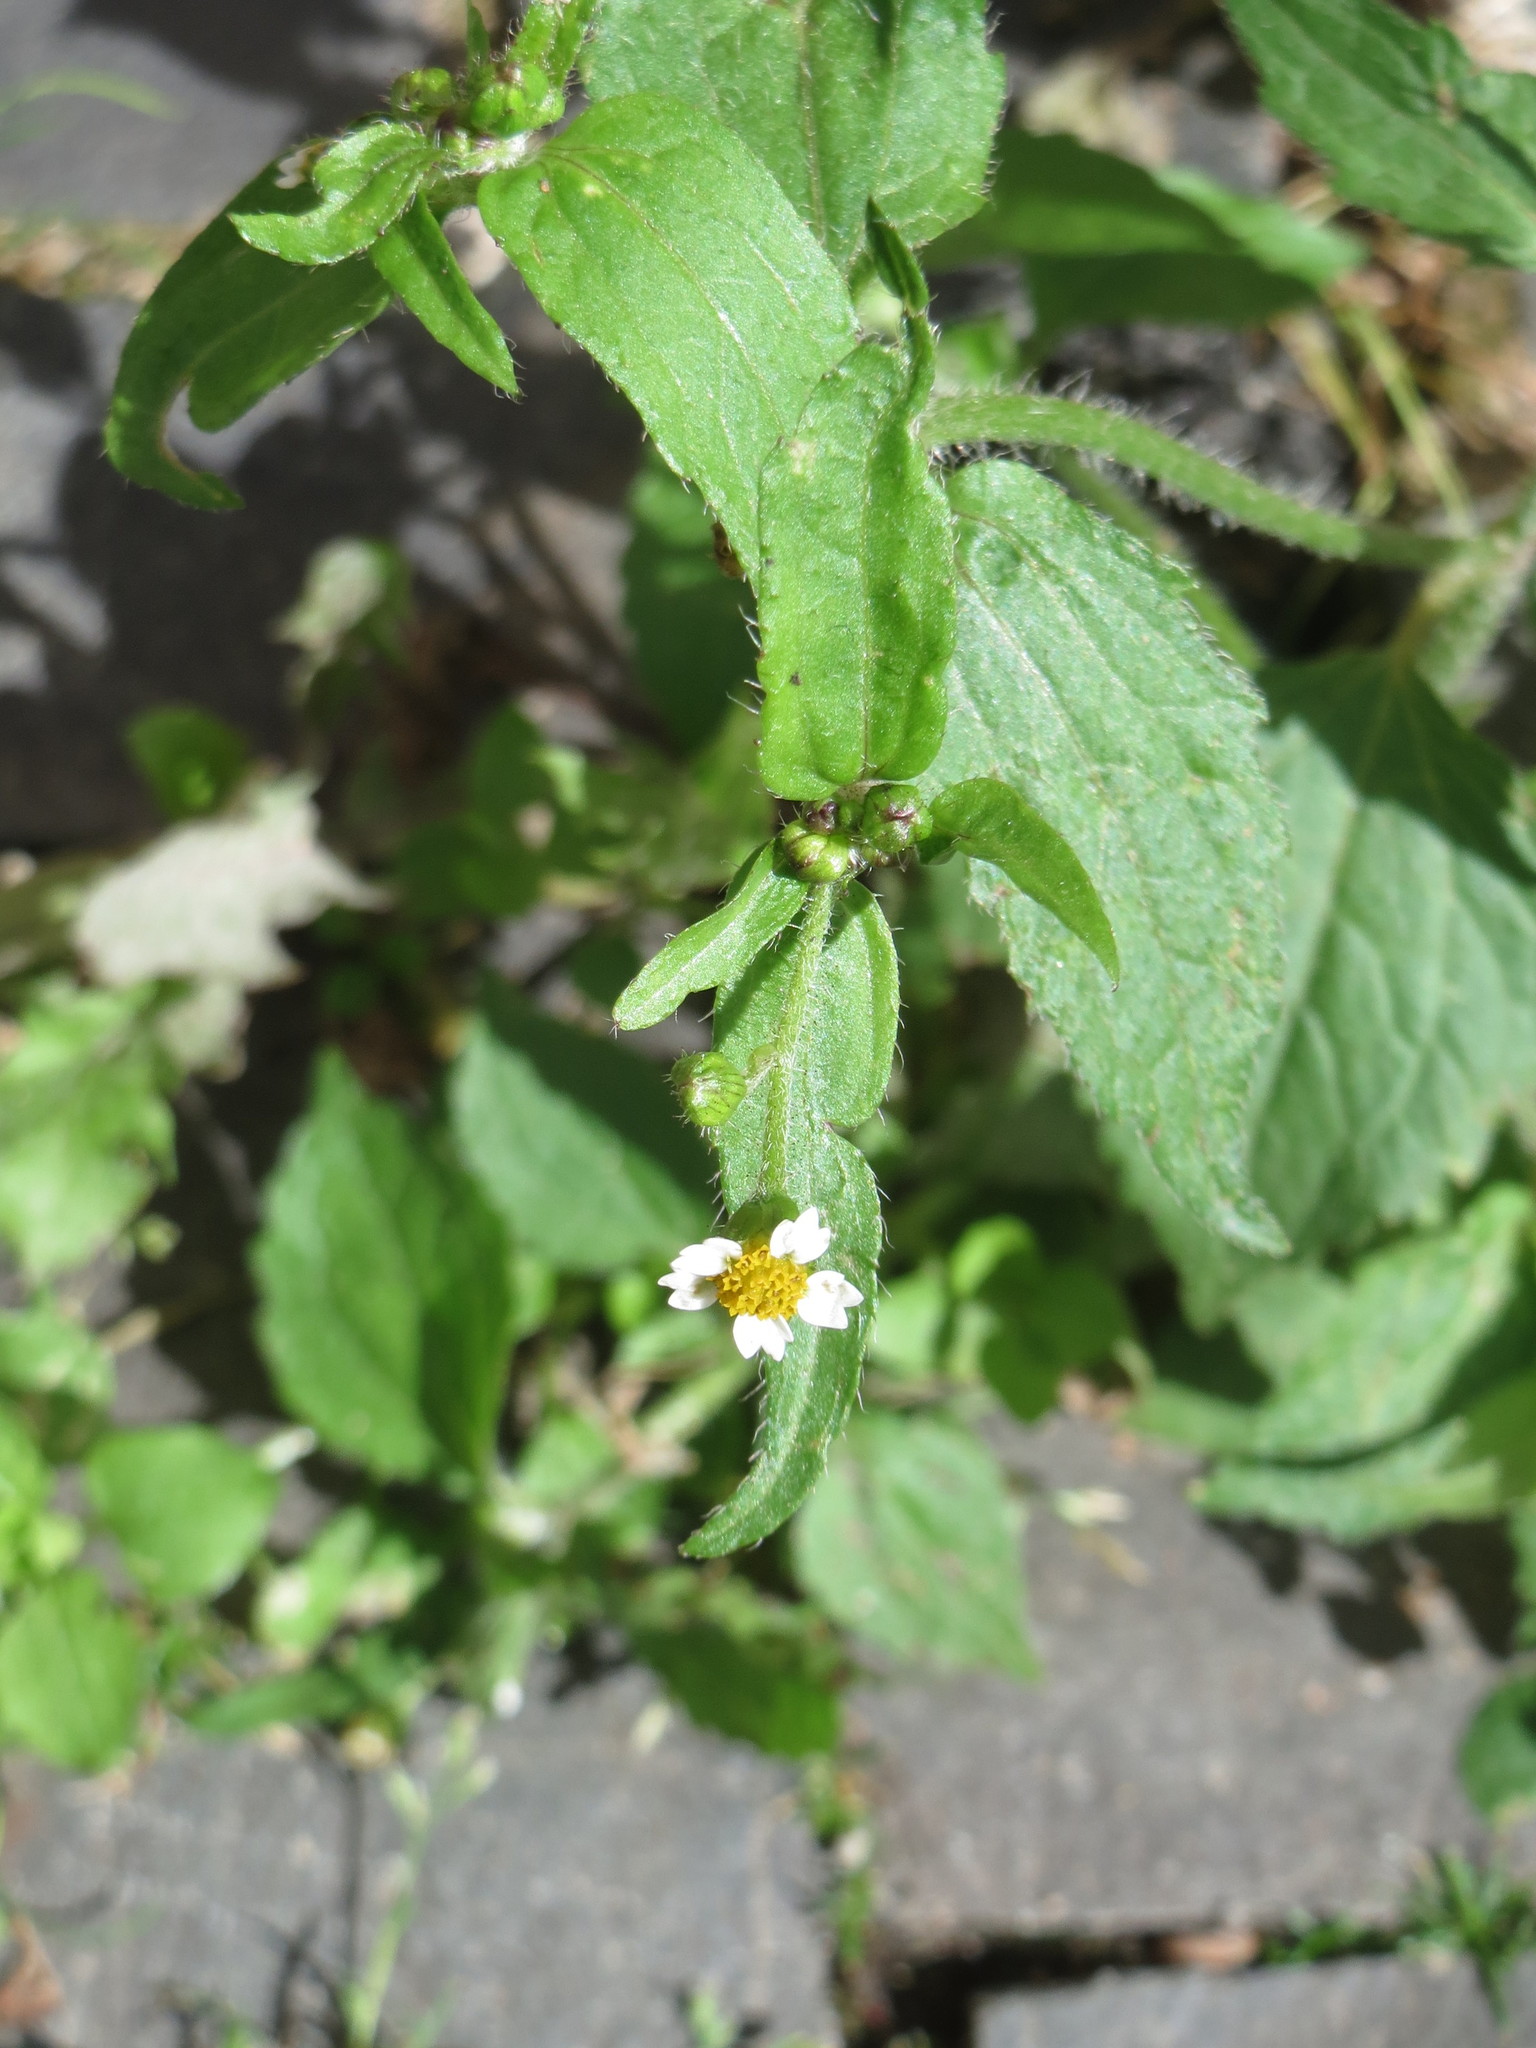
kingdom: Plantae
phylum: Tracheophyta
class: Magnoliopsida
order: Asterales
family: Asteraceae
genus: Galinsoga
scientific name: Galinsoga quadriradiata
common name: Shaggy soldier
